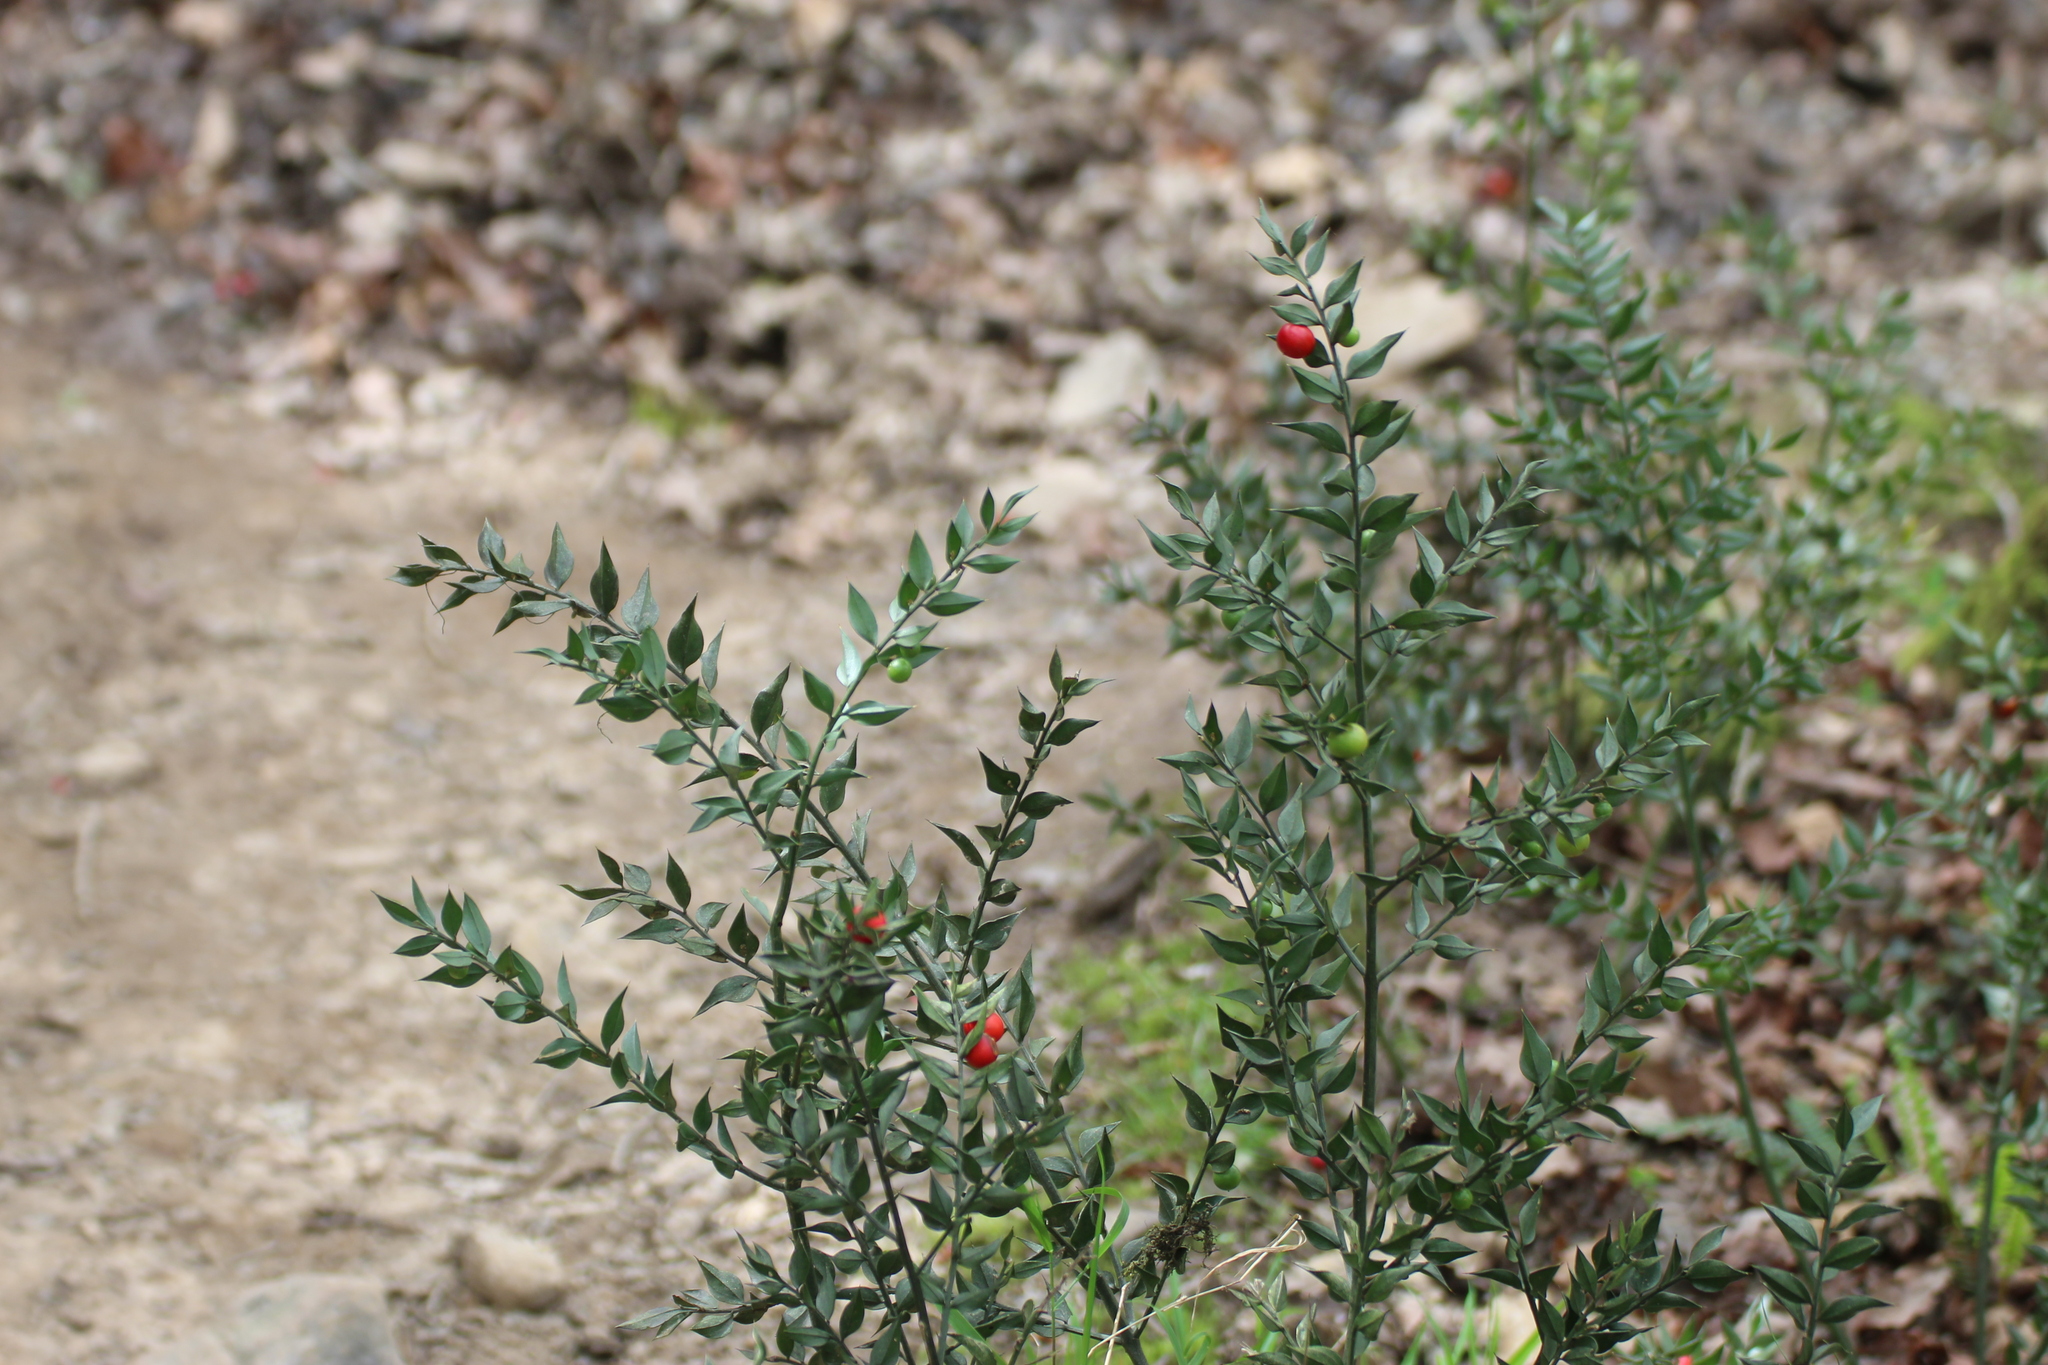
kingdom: Plantae
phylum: Tracheophyta
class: Liliopsida
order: Asparagales
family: Asparagaceae
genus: Ruscus
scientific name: Ruscus aculeatus
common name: Butcher's-broom
